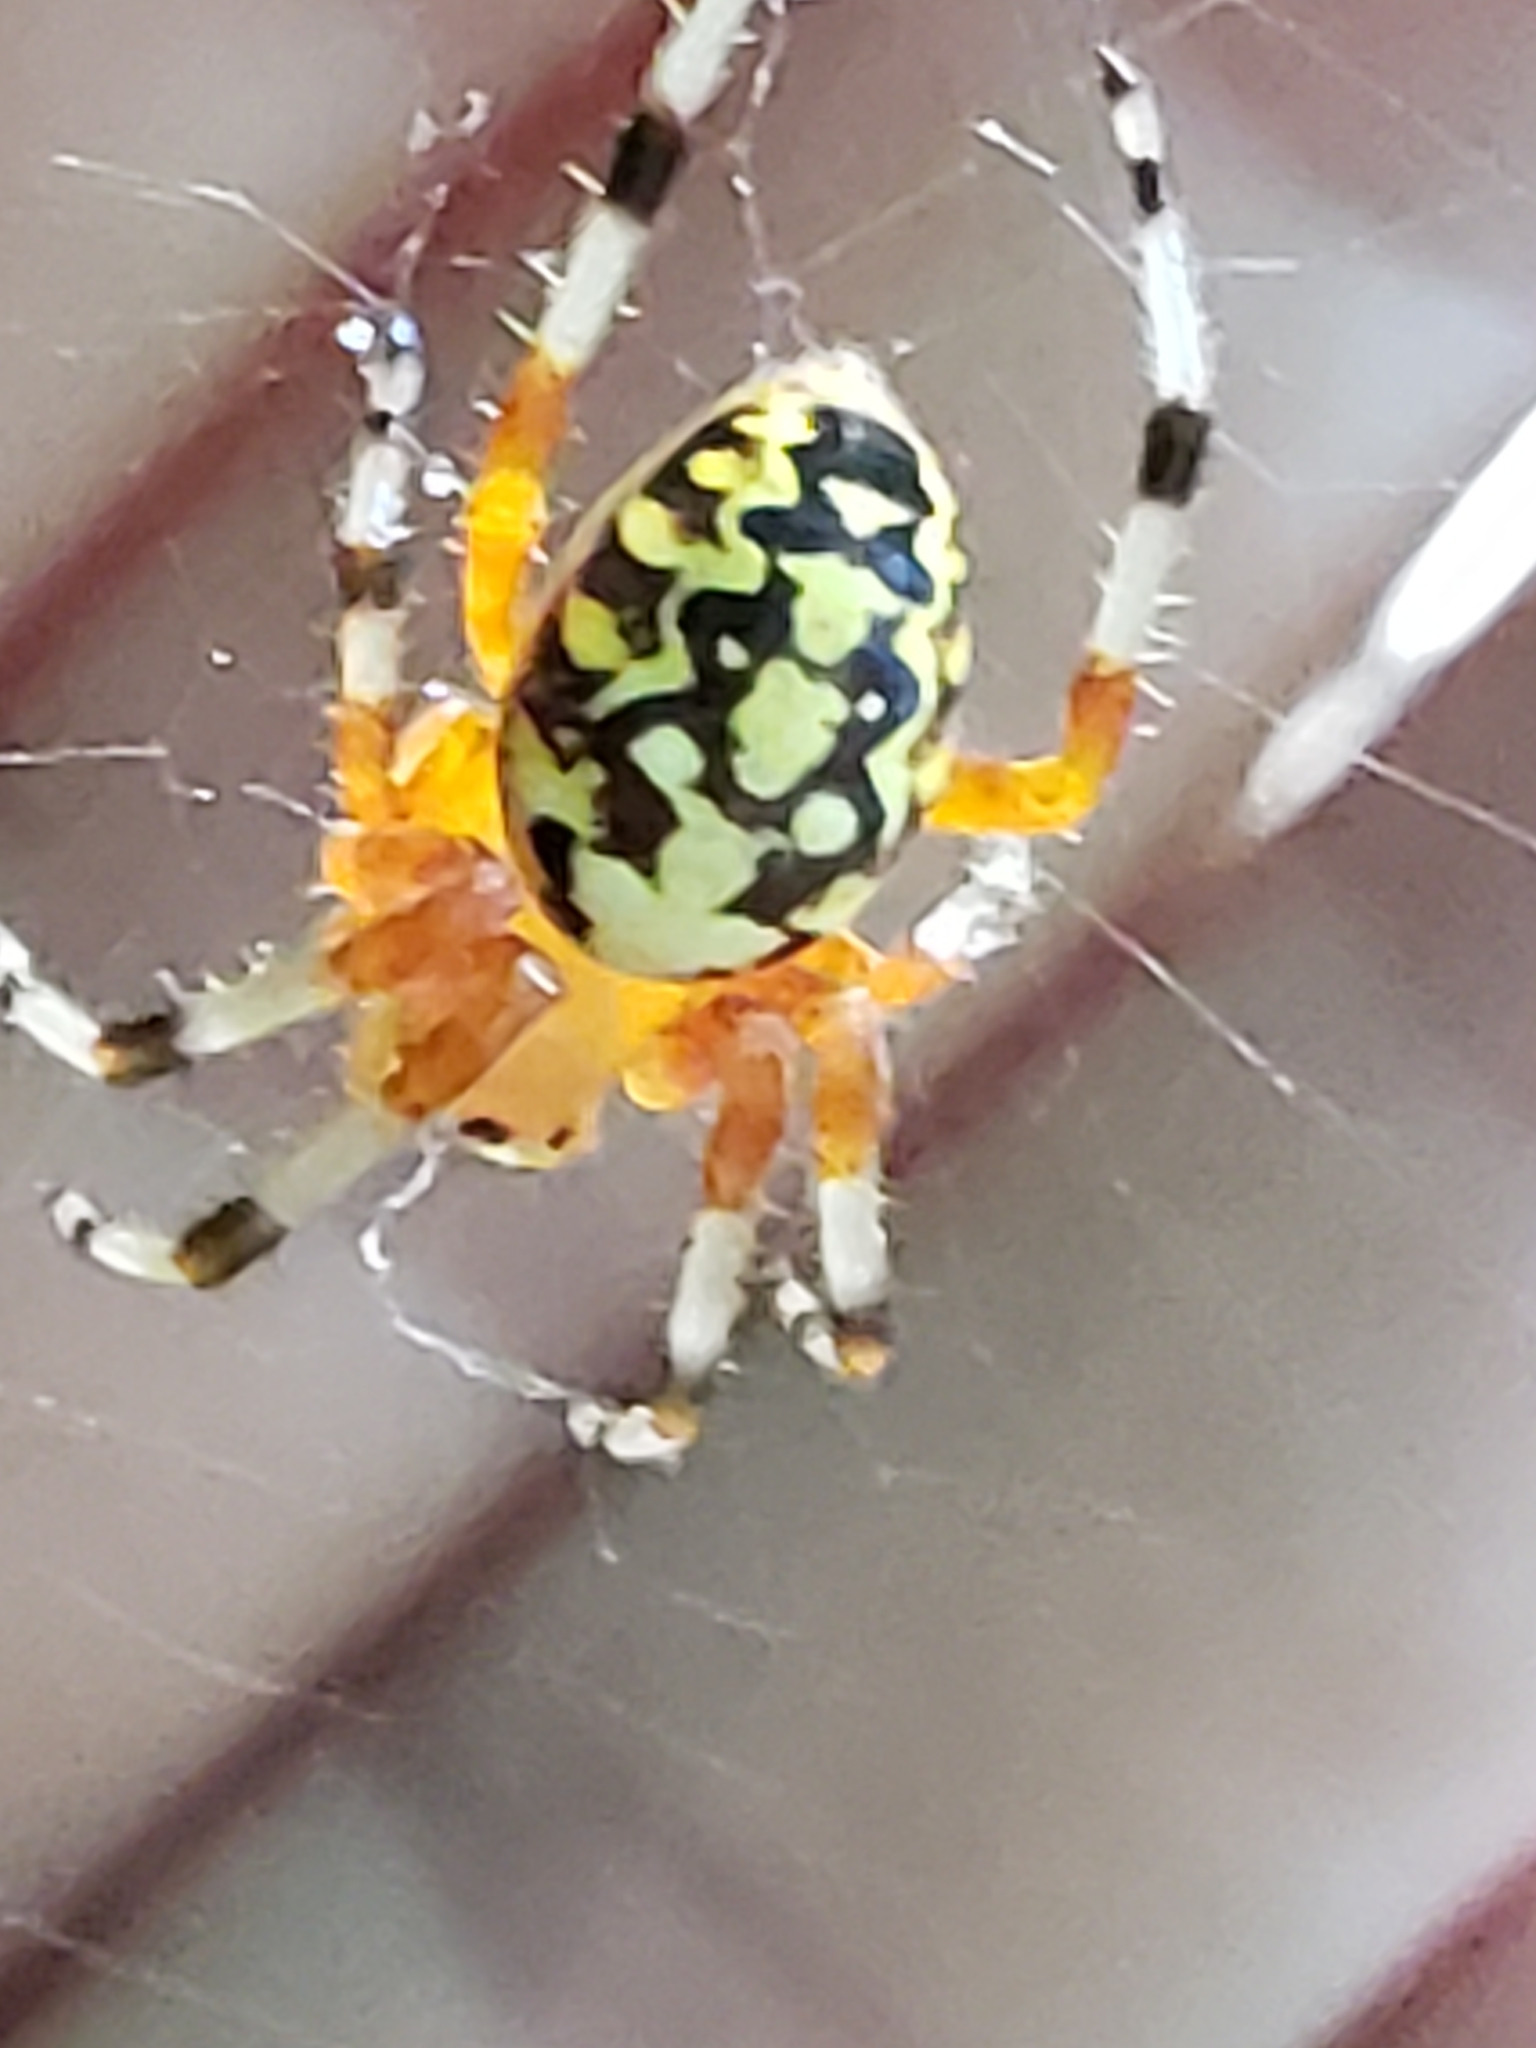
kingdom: Animalia
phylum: Arthropoda
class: Arachnida
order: Araneae
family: Araneidae
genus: Araneus
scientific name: Araneus marmoreus
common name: Marbled orbweaver
